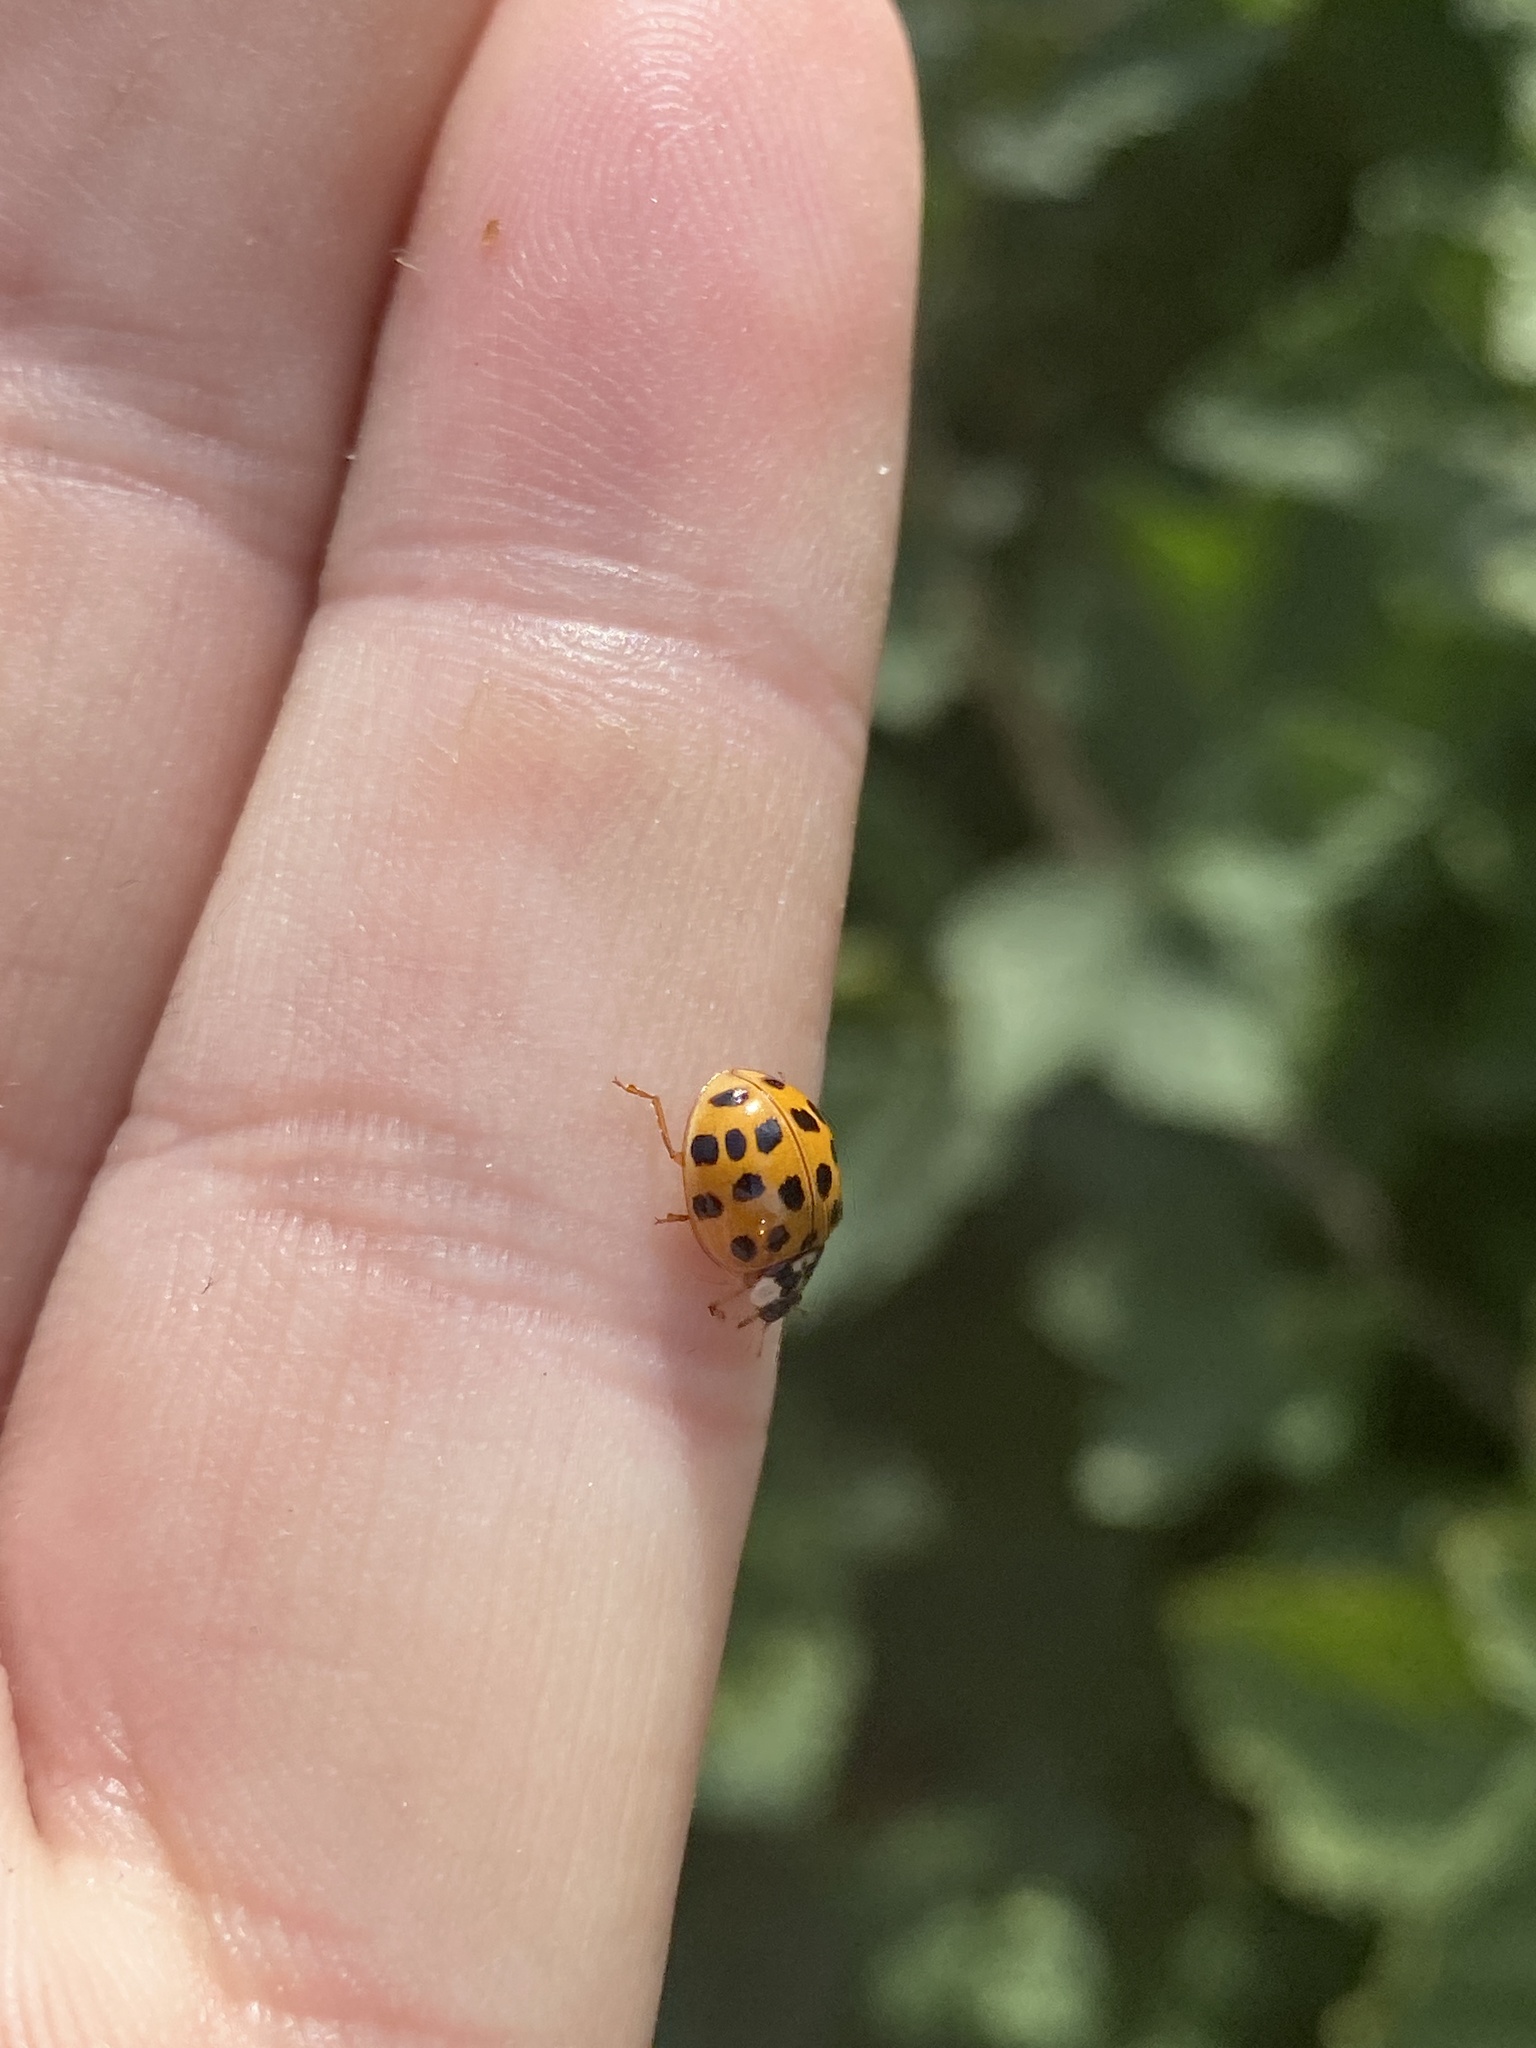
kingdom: Animalia
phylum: Arthropoda
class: Insecta
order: Coleoptera
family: Coccinellidae
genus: Harmonia
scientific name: Harmonia axyridis
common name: Harlequin ladybird
